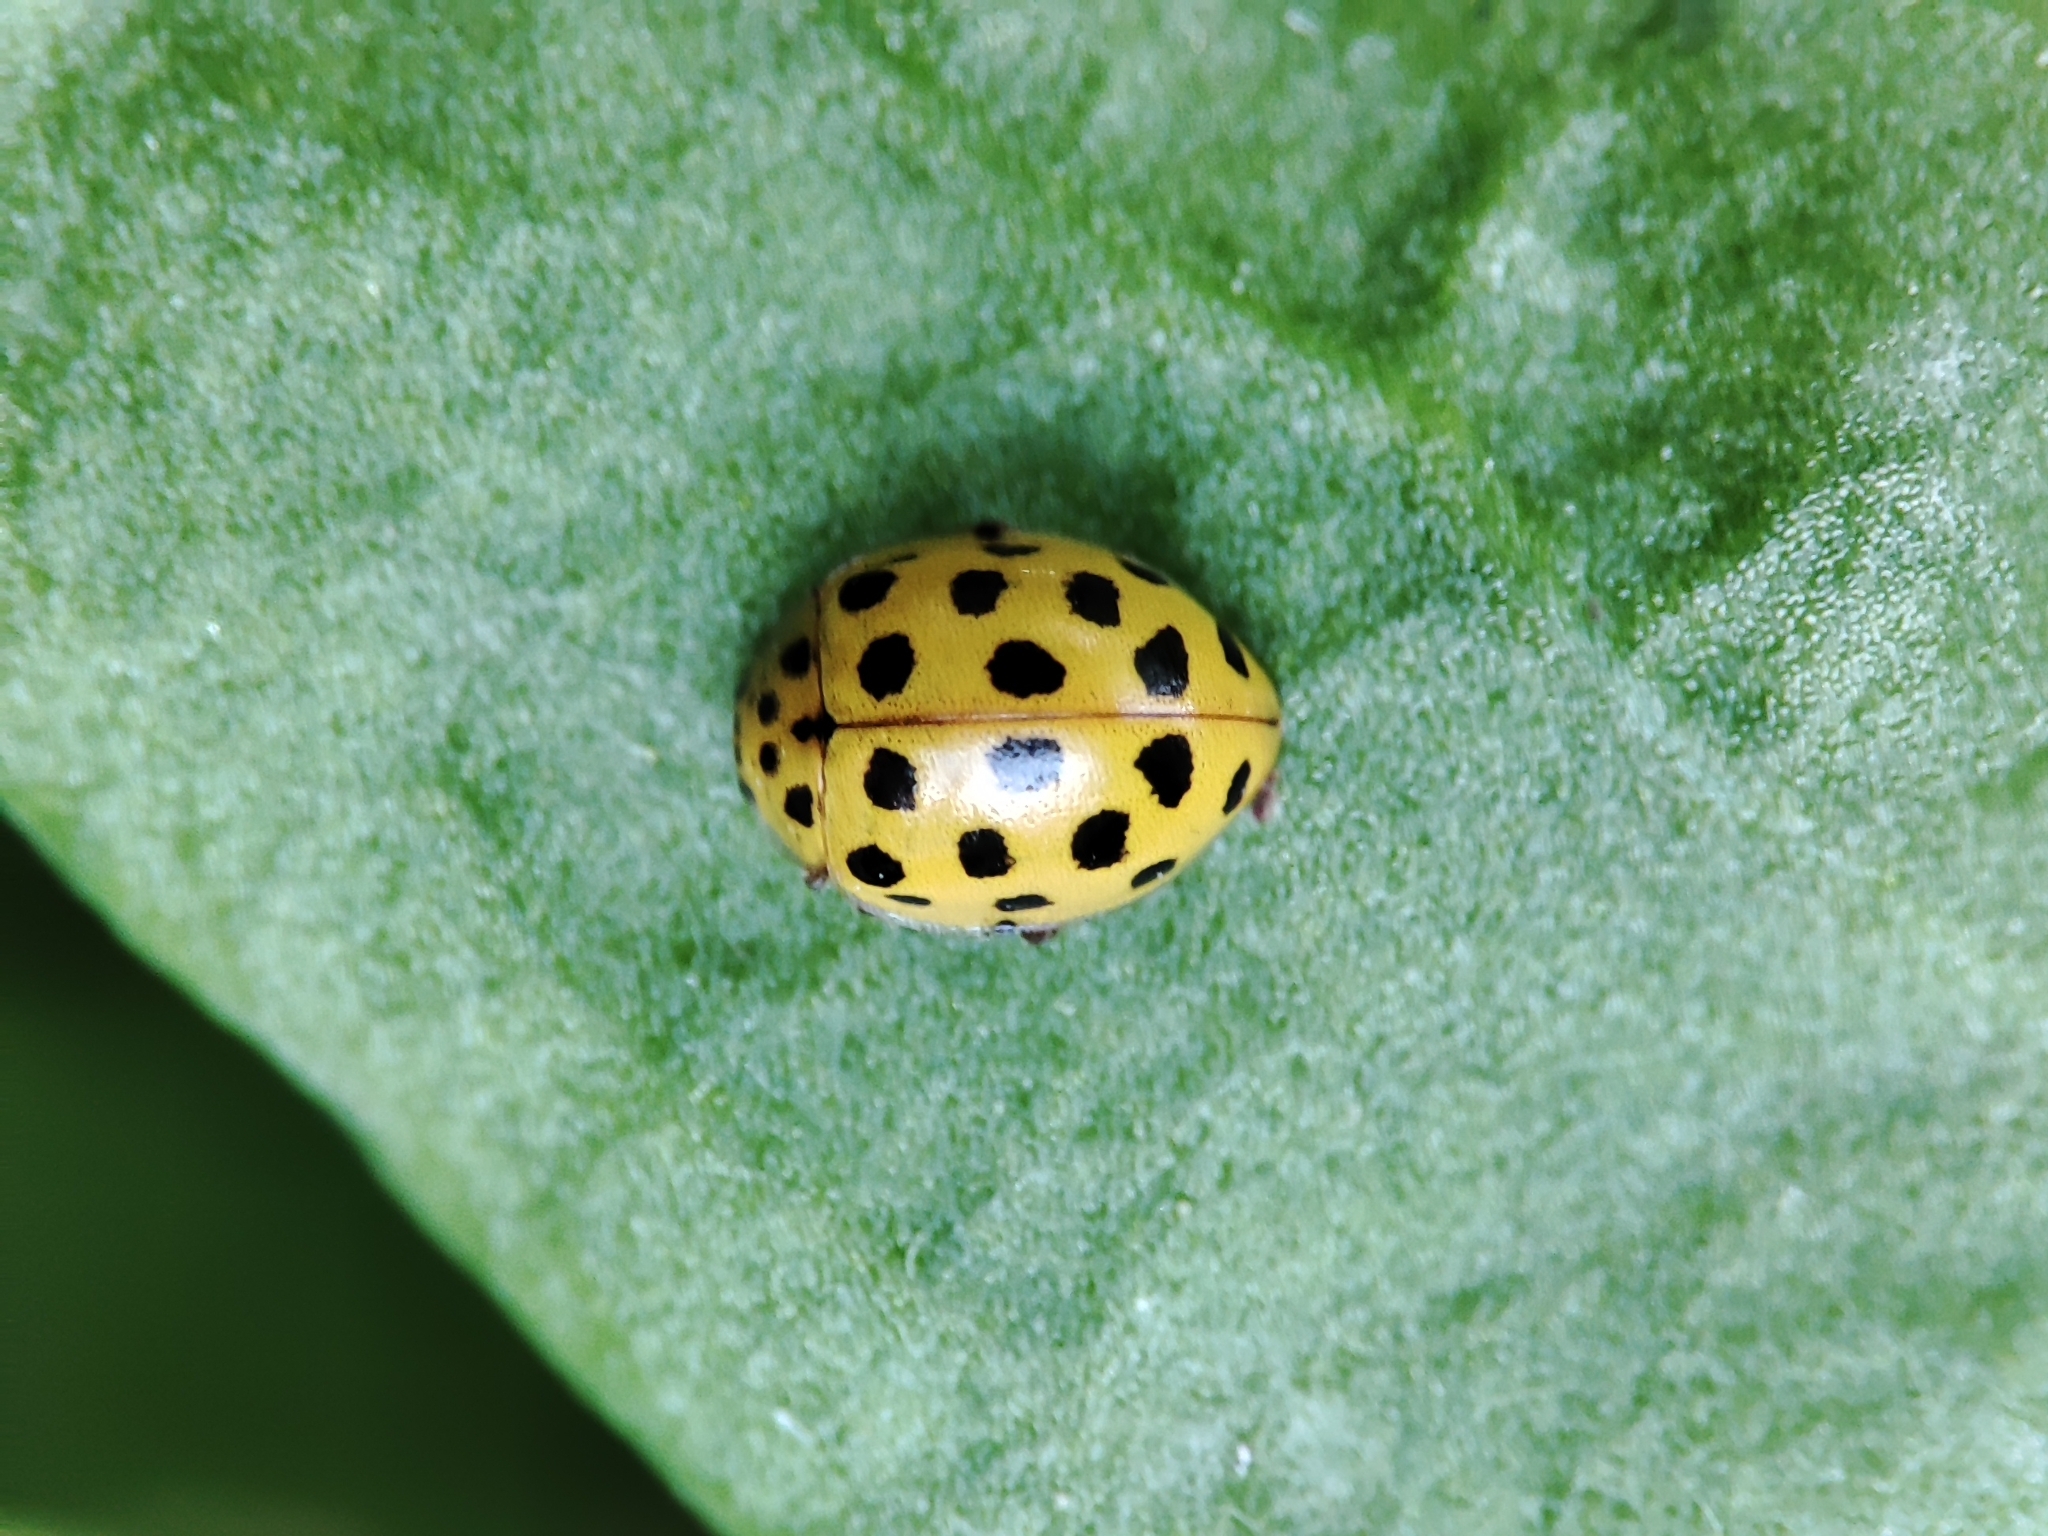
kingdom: Animalia
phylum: Arthropoda
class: Insecta
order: Coleoptera
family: Coccinellidae
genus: Psyllobora
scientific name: Psyllobora vigintiduopunctata
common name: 22-spot ladybird
